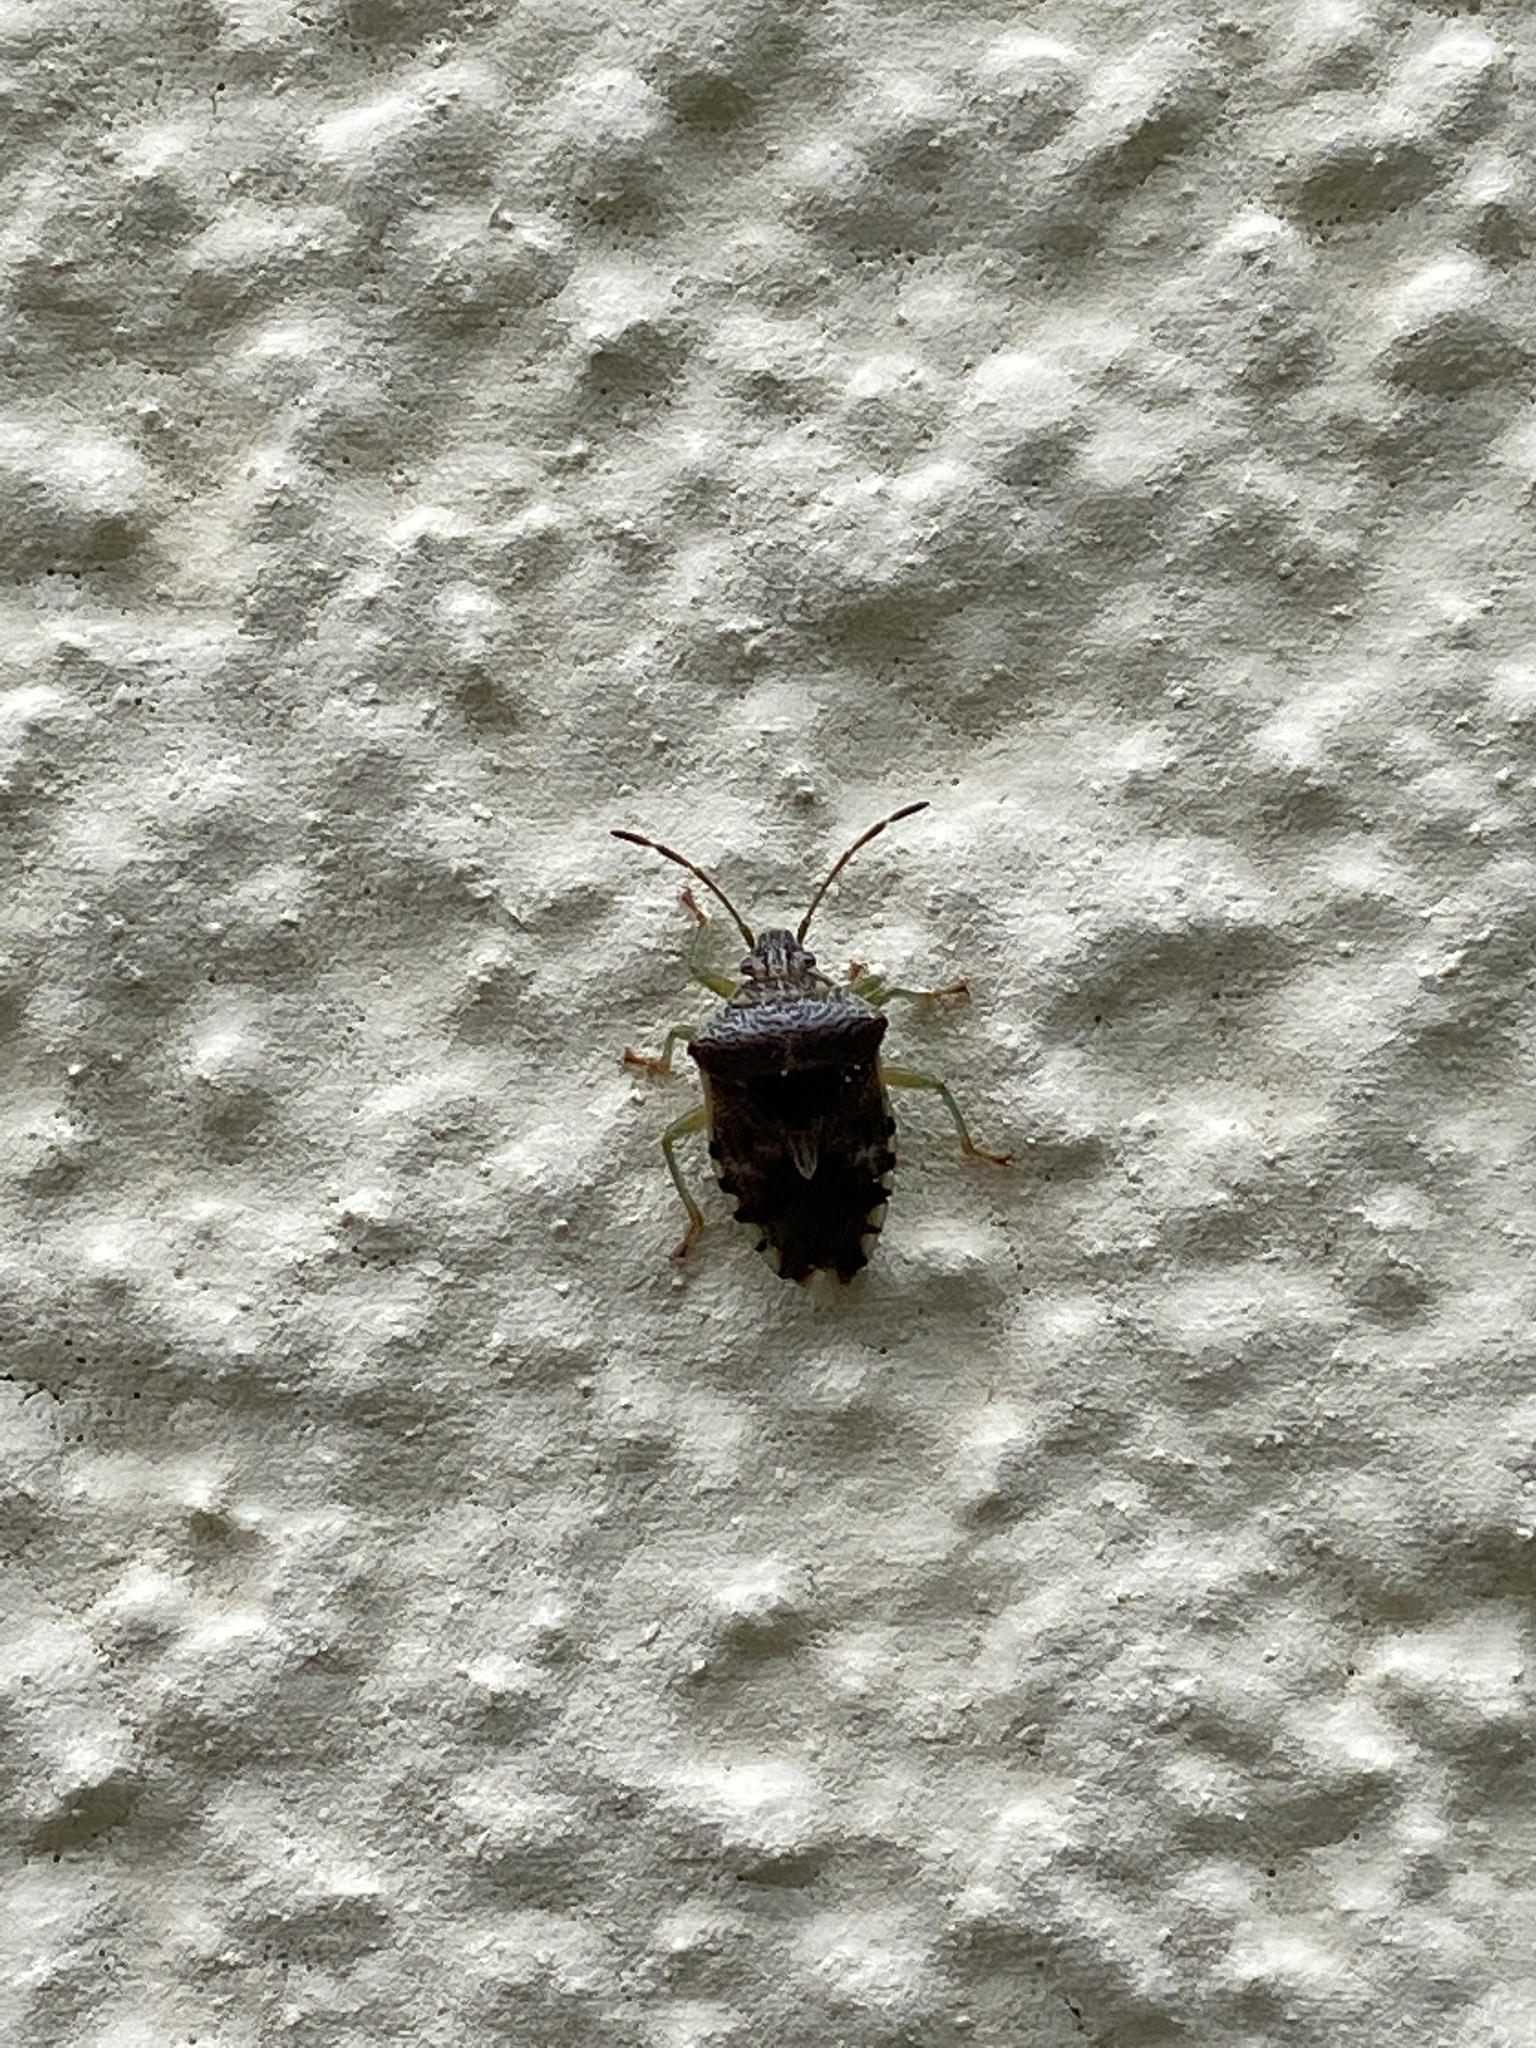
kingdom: Animalia
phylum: Arthropoda
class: Insecta
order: Hemiptera
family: Acanthosomatidae
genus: Elasmucha
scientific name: Elasmucha grisea
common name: Parent bug
